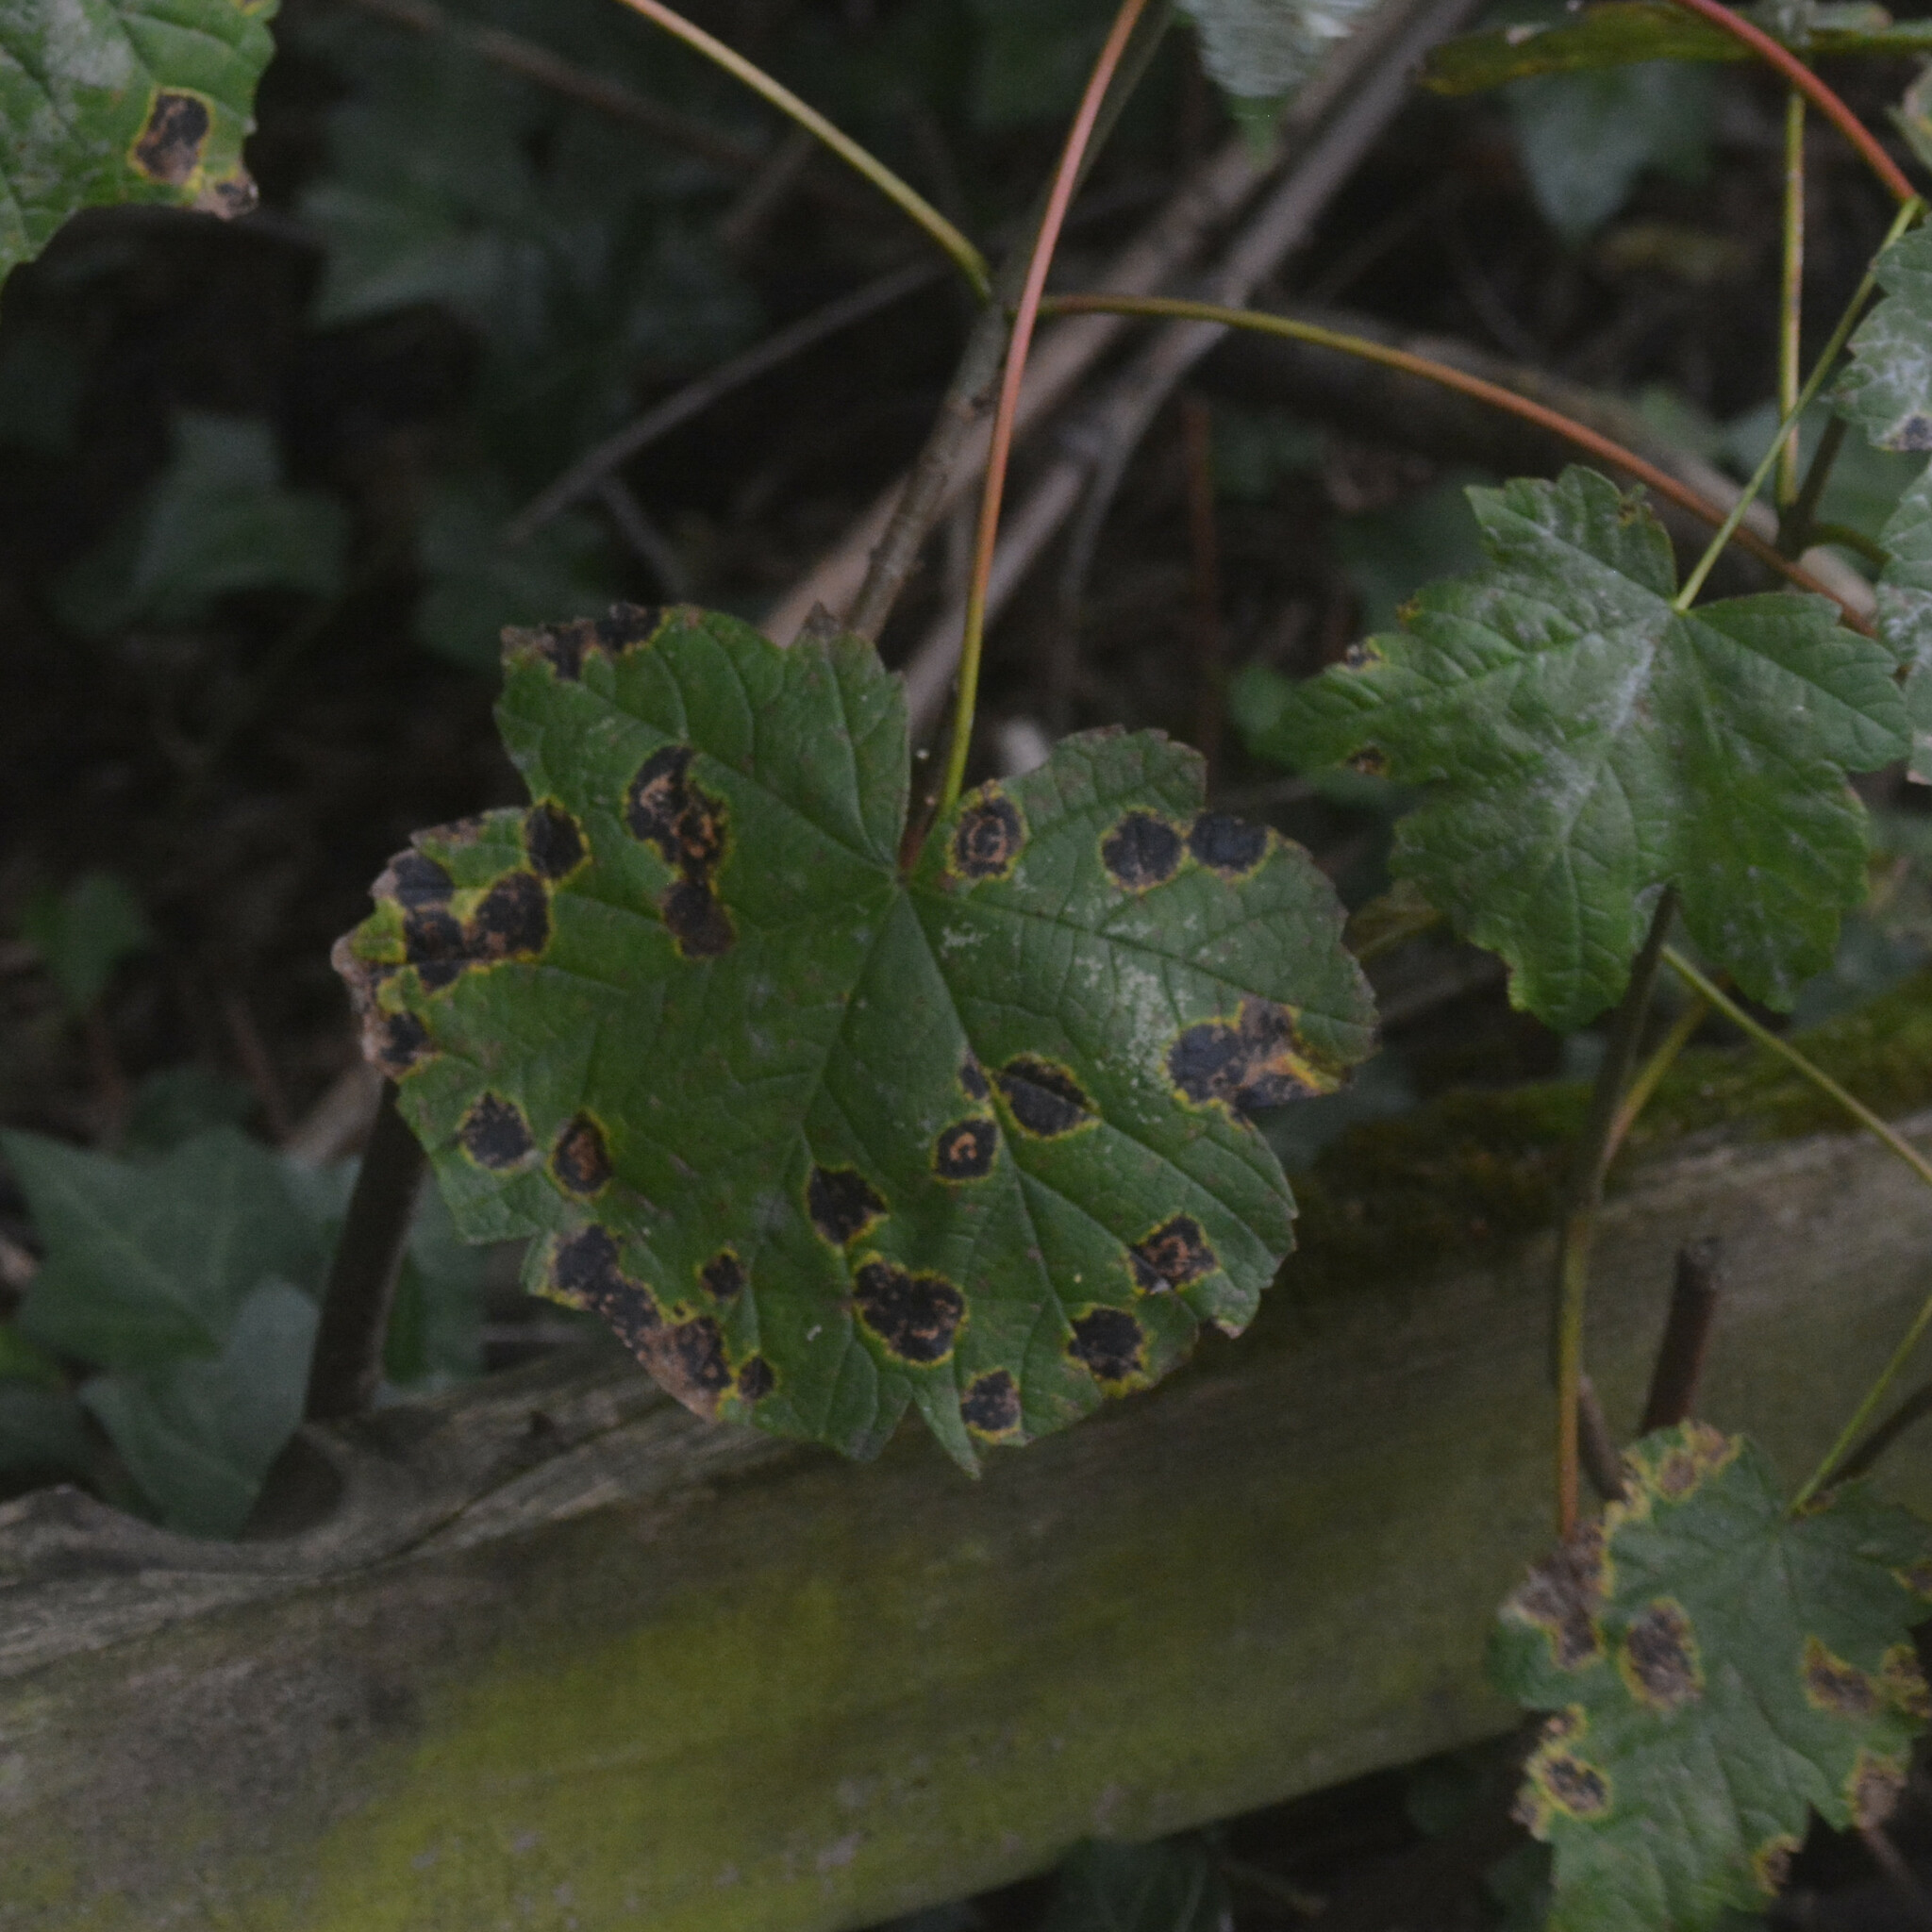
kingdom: Fungi
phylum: Ascomycota
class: Leotiomycetes
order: Rhytismatales
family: Rhytismataceae
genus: Rhytisma
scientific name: Rhytisma acerinum
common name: European tar spot
